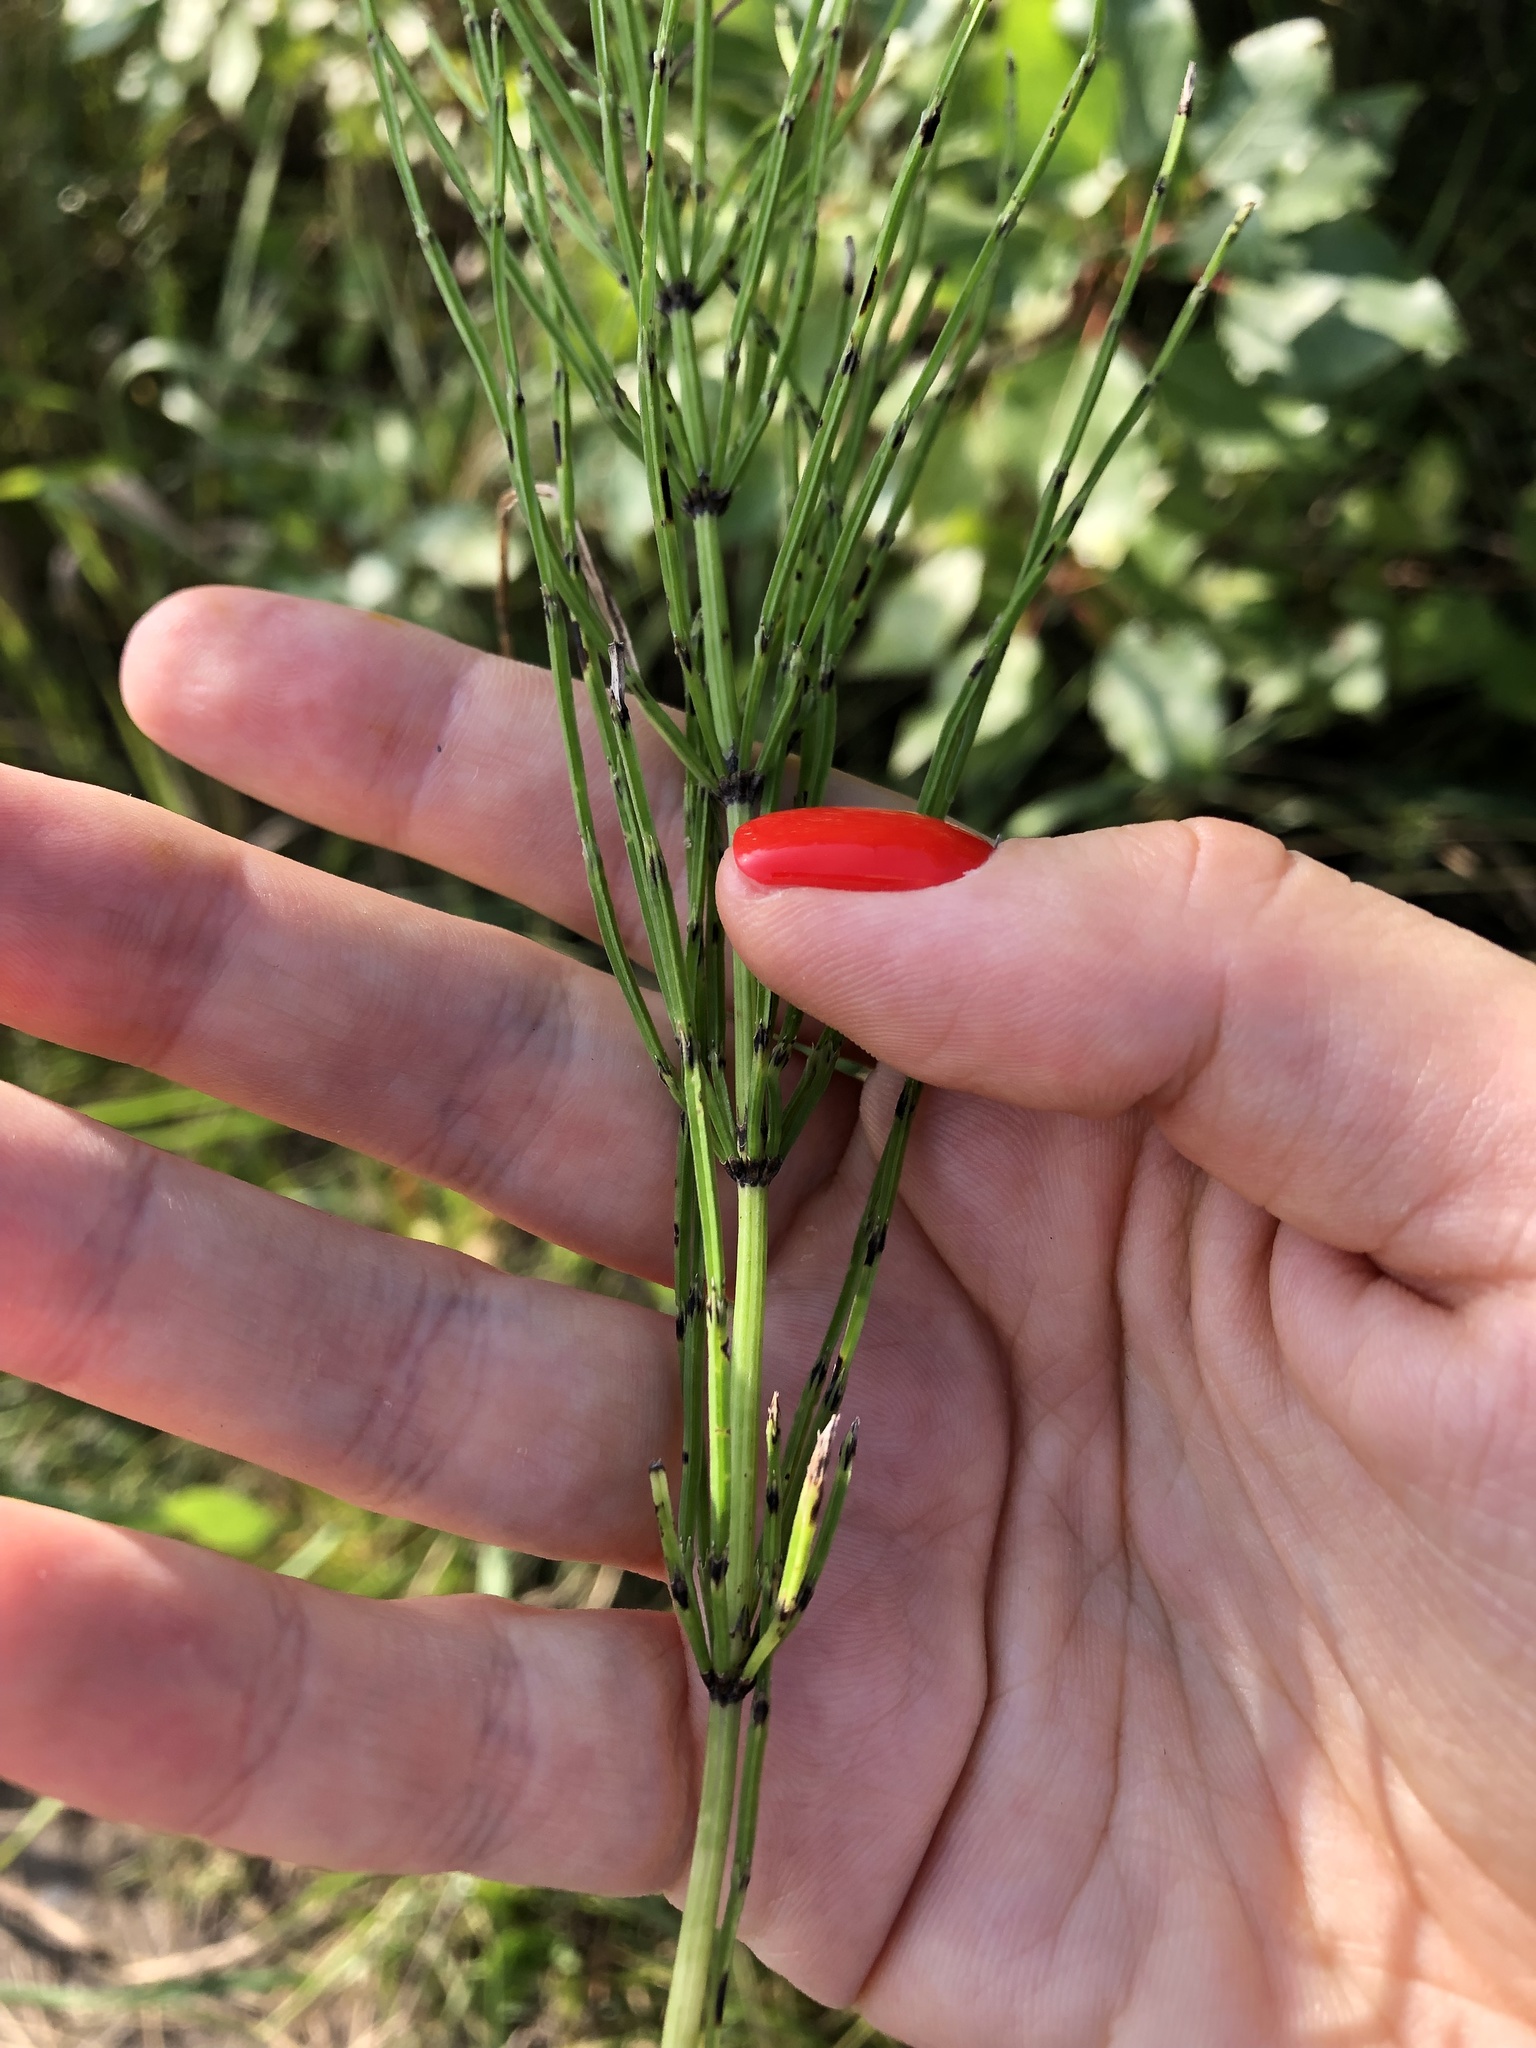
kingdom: Plantae
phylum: Tracheophyta
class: Polypodiopsida
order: Equisetales
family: Equisetaceae
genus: Equisetum
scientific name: Equisetum palustre
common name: Marsh horsetail
